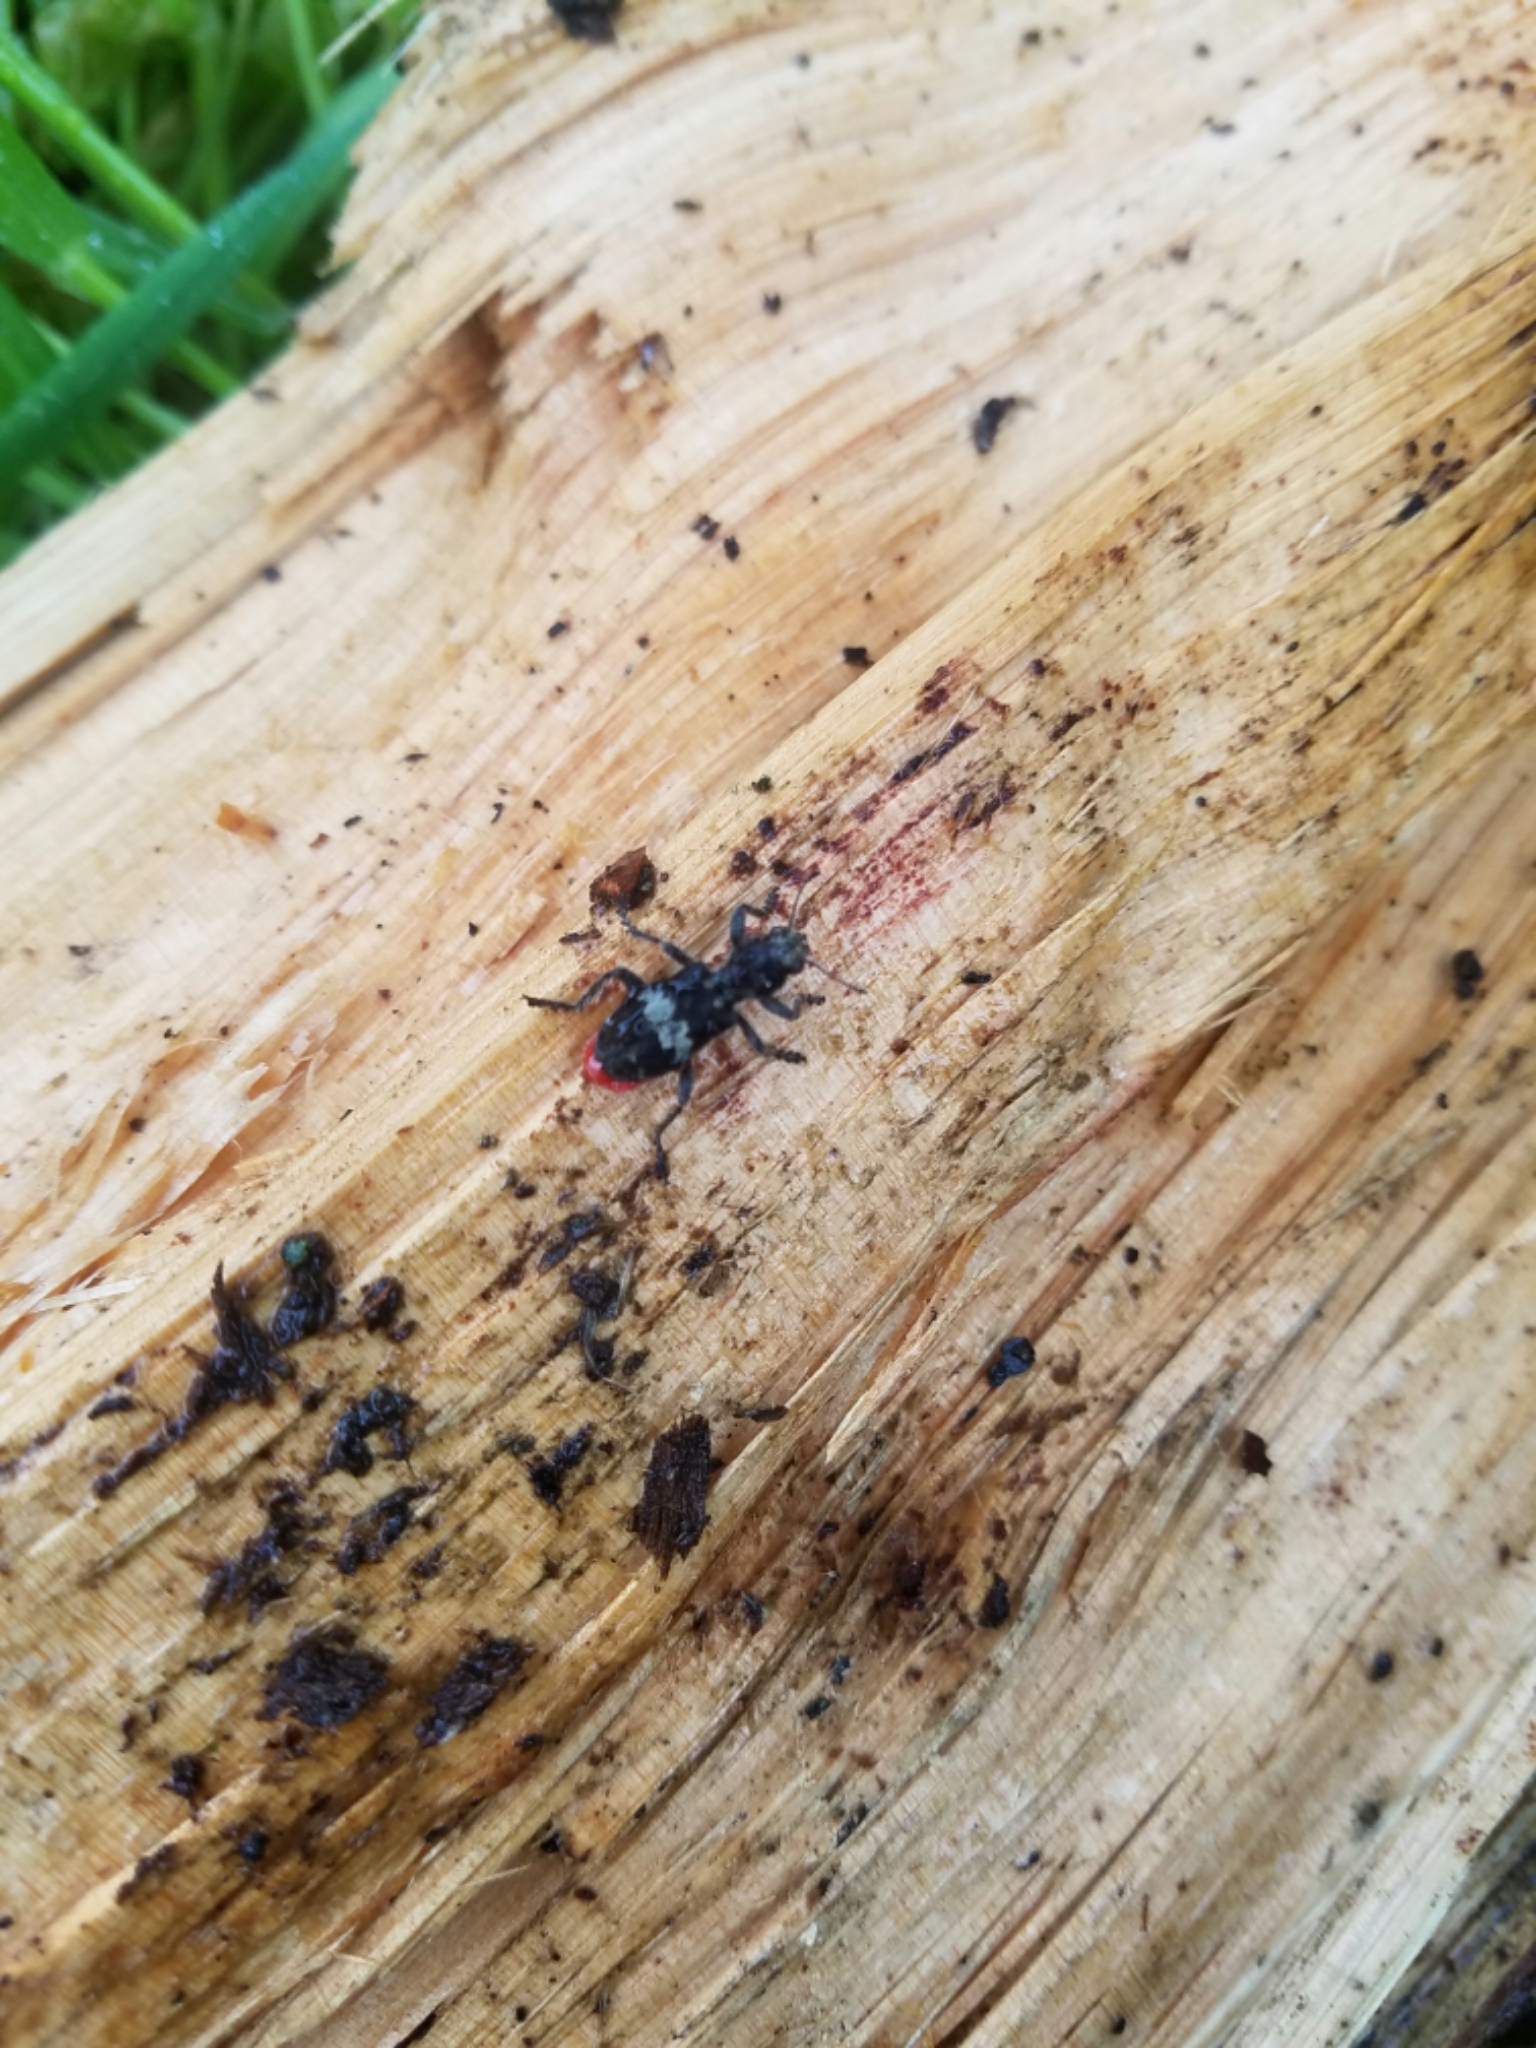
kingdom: Animalia
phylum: Arthropoda
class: Insecta
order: Coleoptera
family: Cleridae
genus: Enoclerus
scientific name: Enoclerus sphegeus
